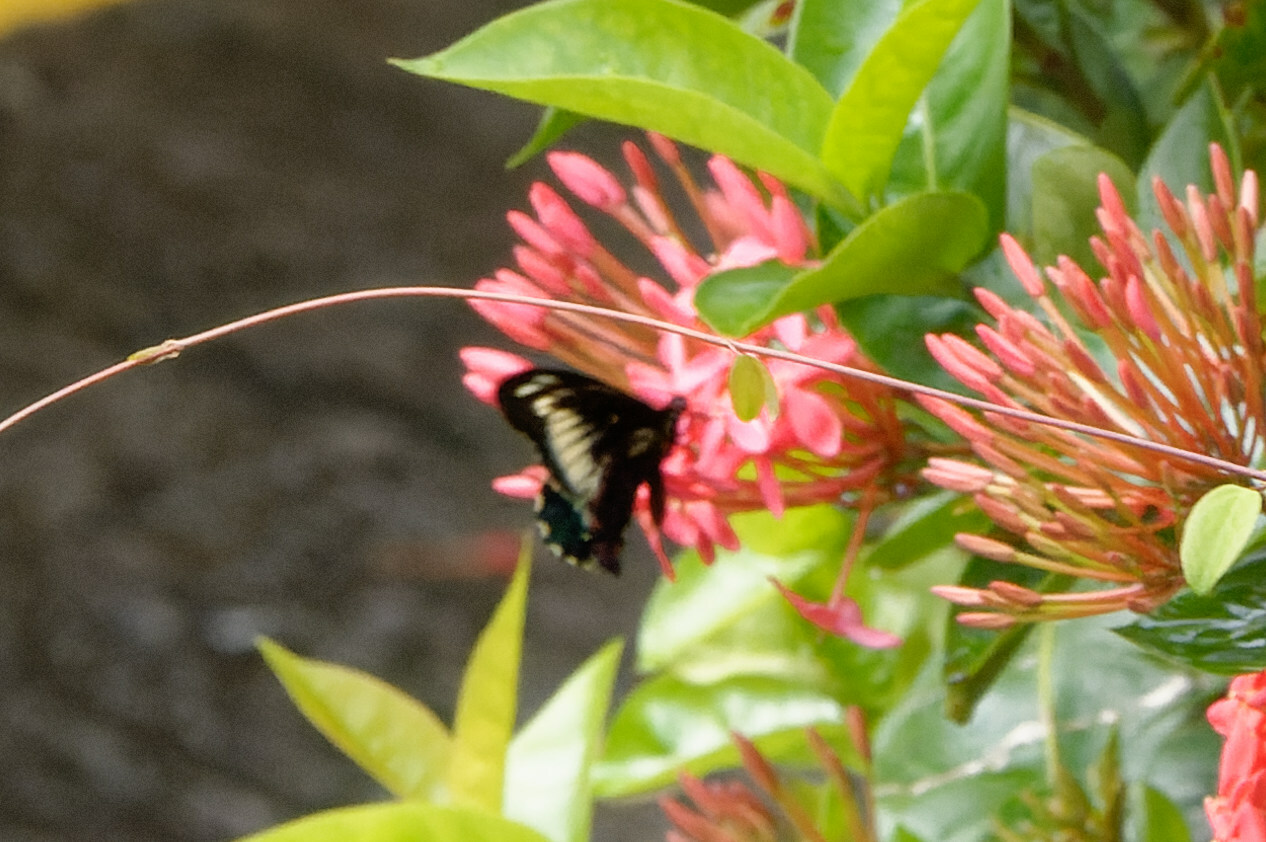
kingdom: Animalia
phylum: Arthropoda
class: Insecta
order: Lepidoptera
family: Papilionidae
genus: Battus
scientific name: Battus polydamas
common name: Polydamas swallowtail
